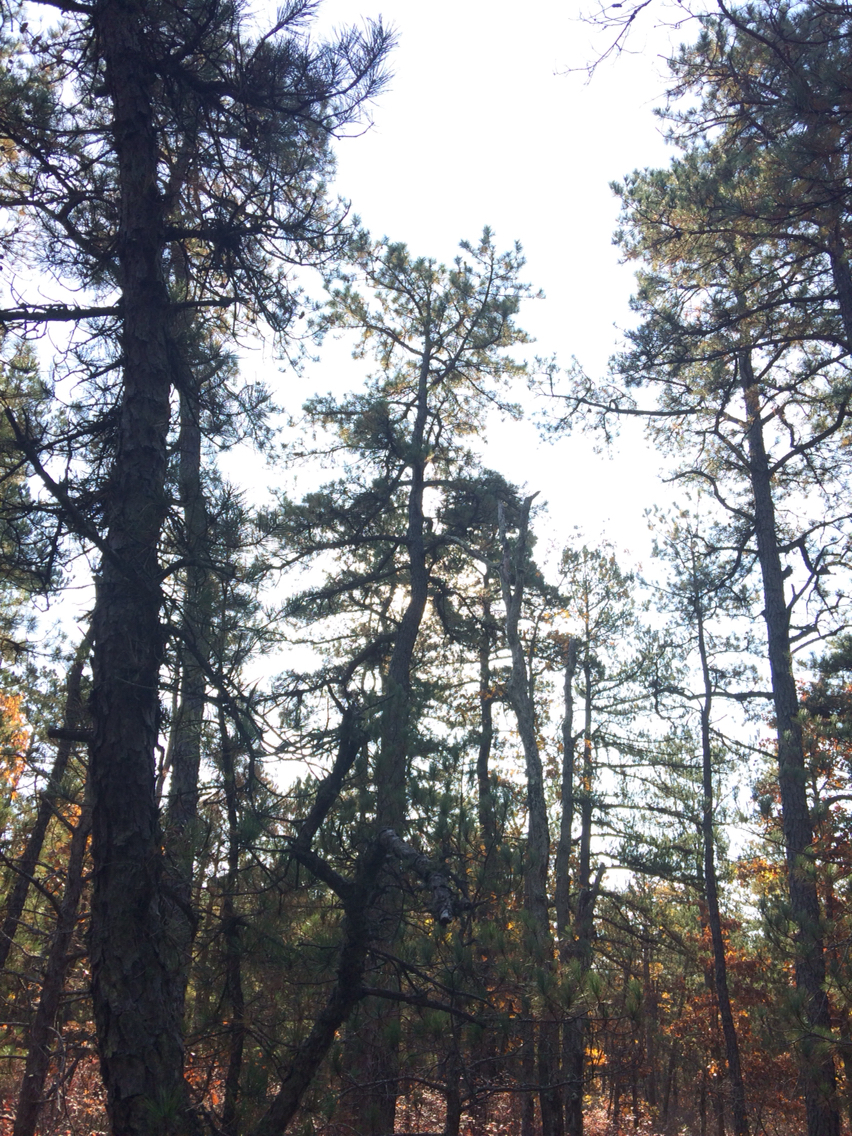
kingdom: Plantae
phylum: Tracheophyta
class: Pinopsida
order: Pinales
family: Pinaceae
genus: Pinus
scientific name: Pinus rigida
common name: Pitch pine
